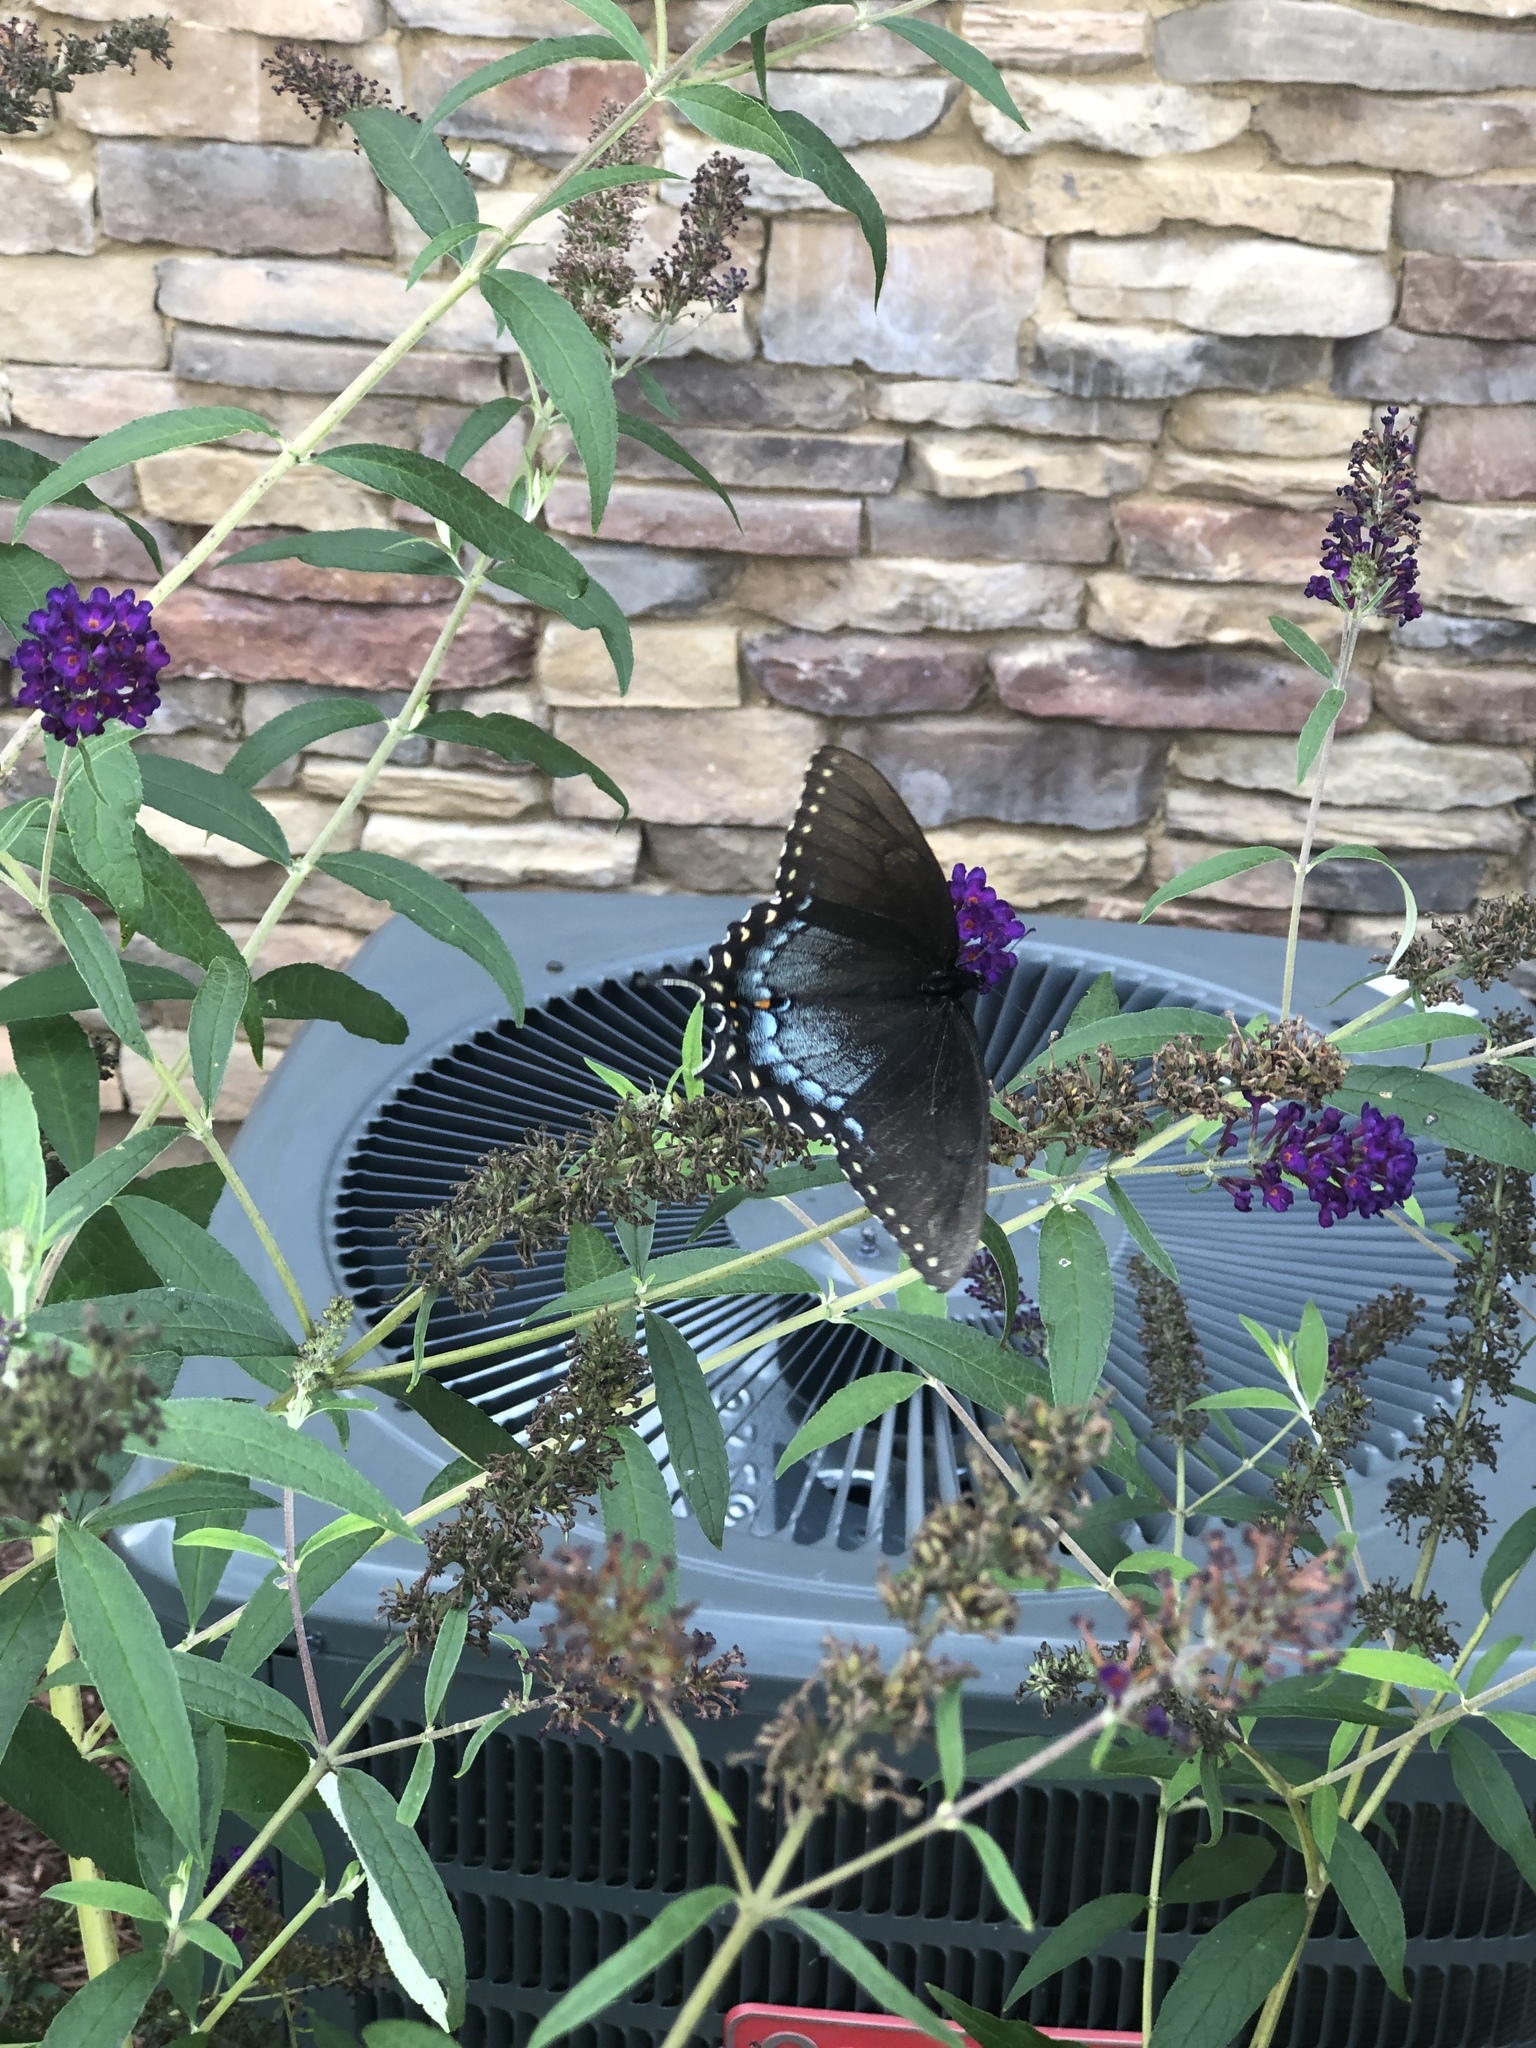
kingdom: Animalia
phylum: Arthropoda
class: Insecta
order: Lepidoptera
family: Papilionidae
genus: Papilio
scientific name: Papilio glaucus
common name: Tiger swallowtail
